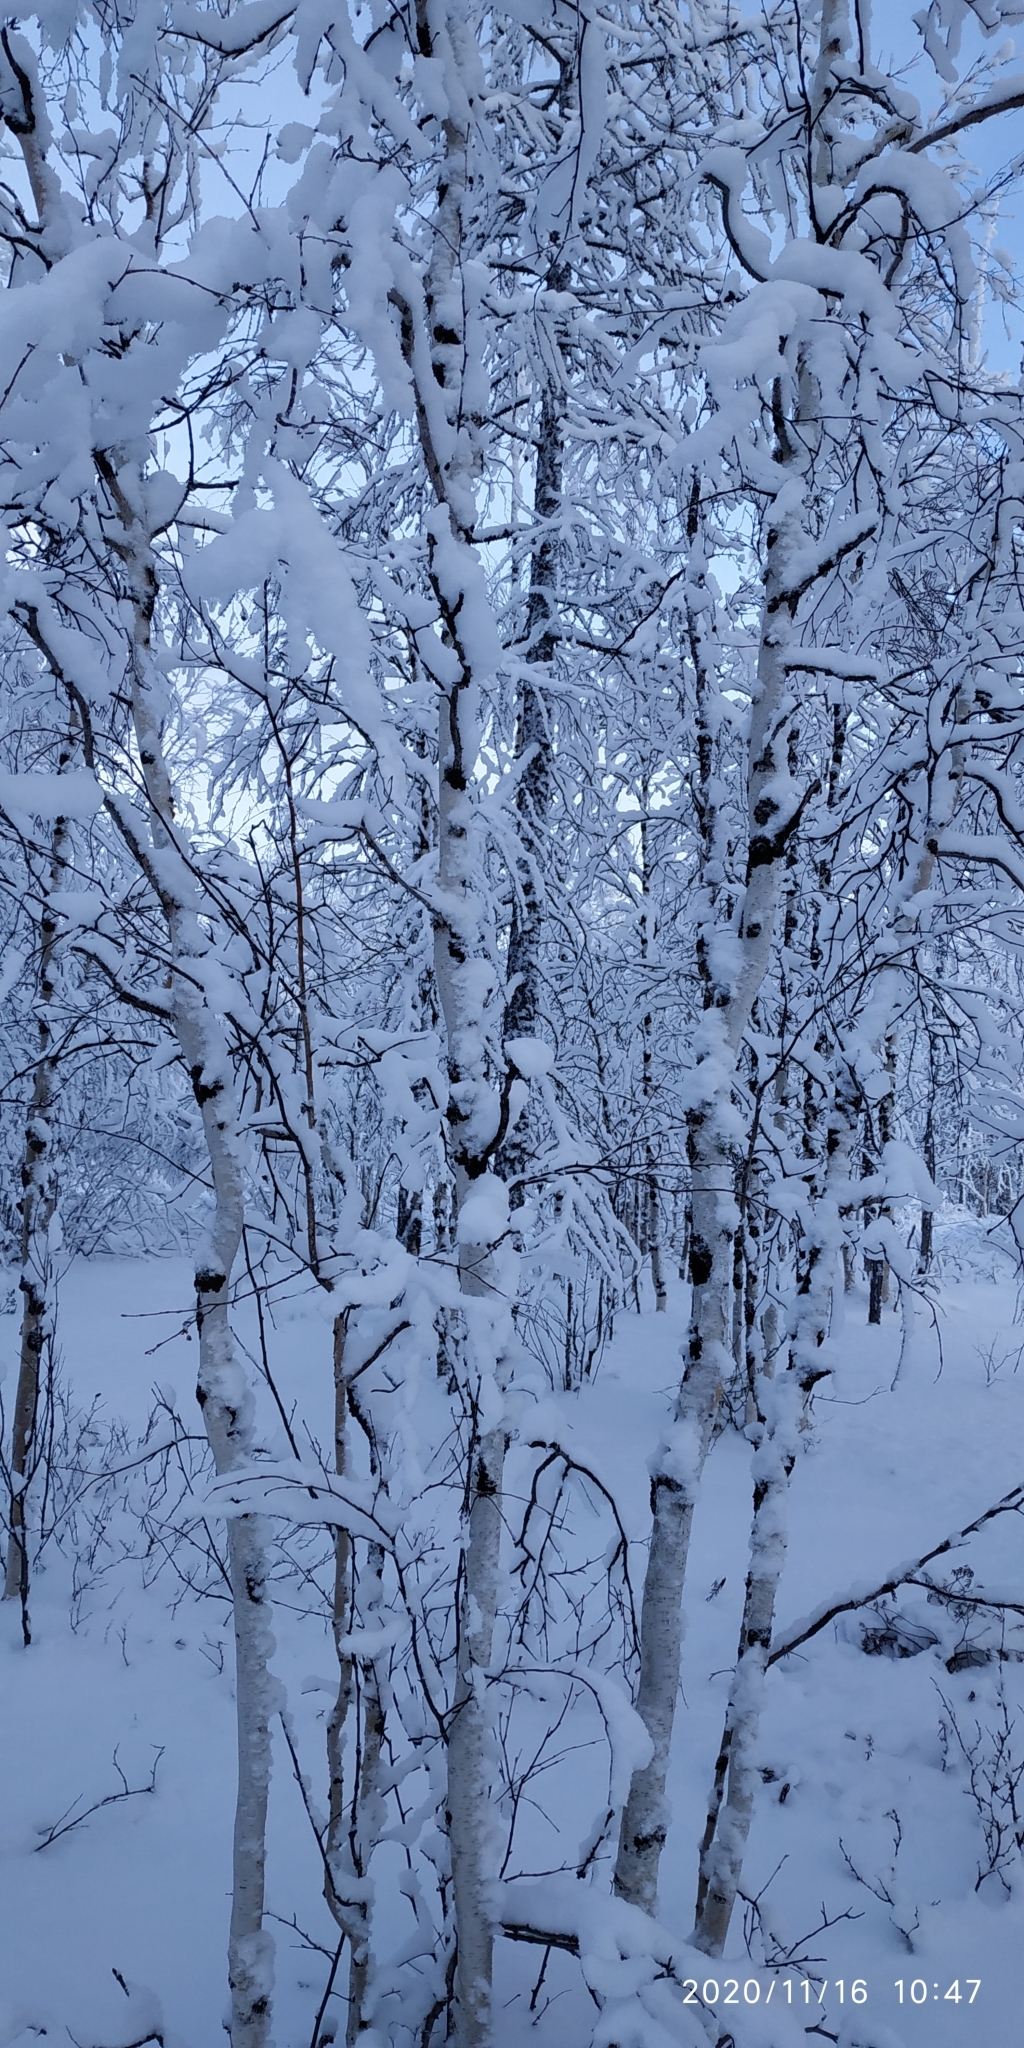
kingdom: Plantae
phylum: Tracheophyta
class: Magnoliopsida
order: Fagales
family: Betulaceae
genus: Betula
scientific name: Betula pubescens
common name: Downy birch
